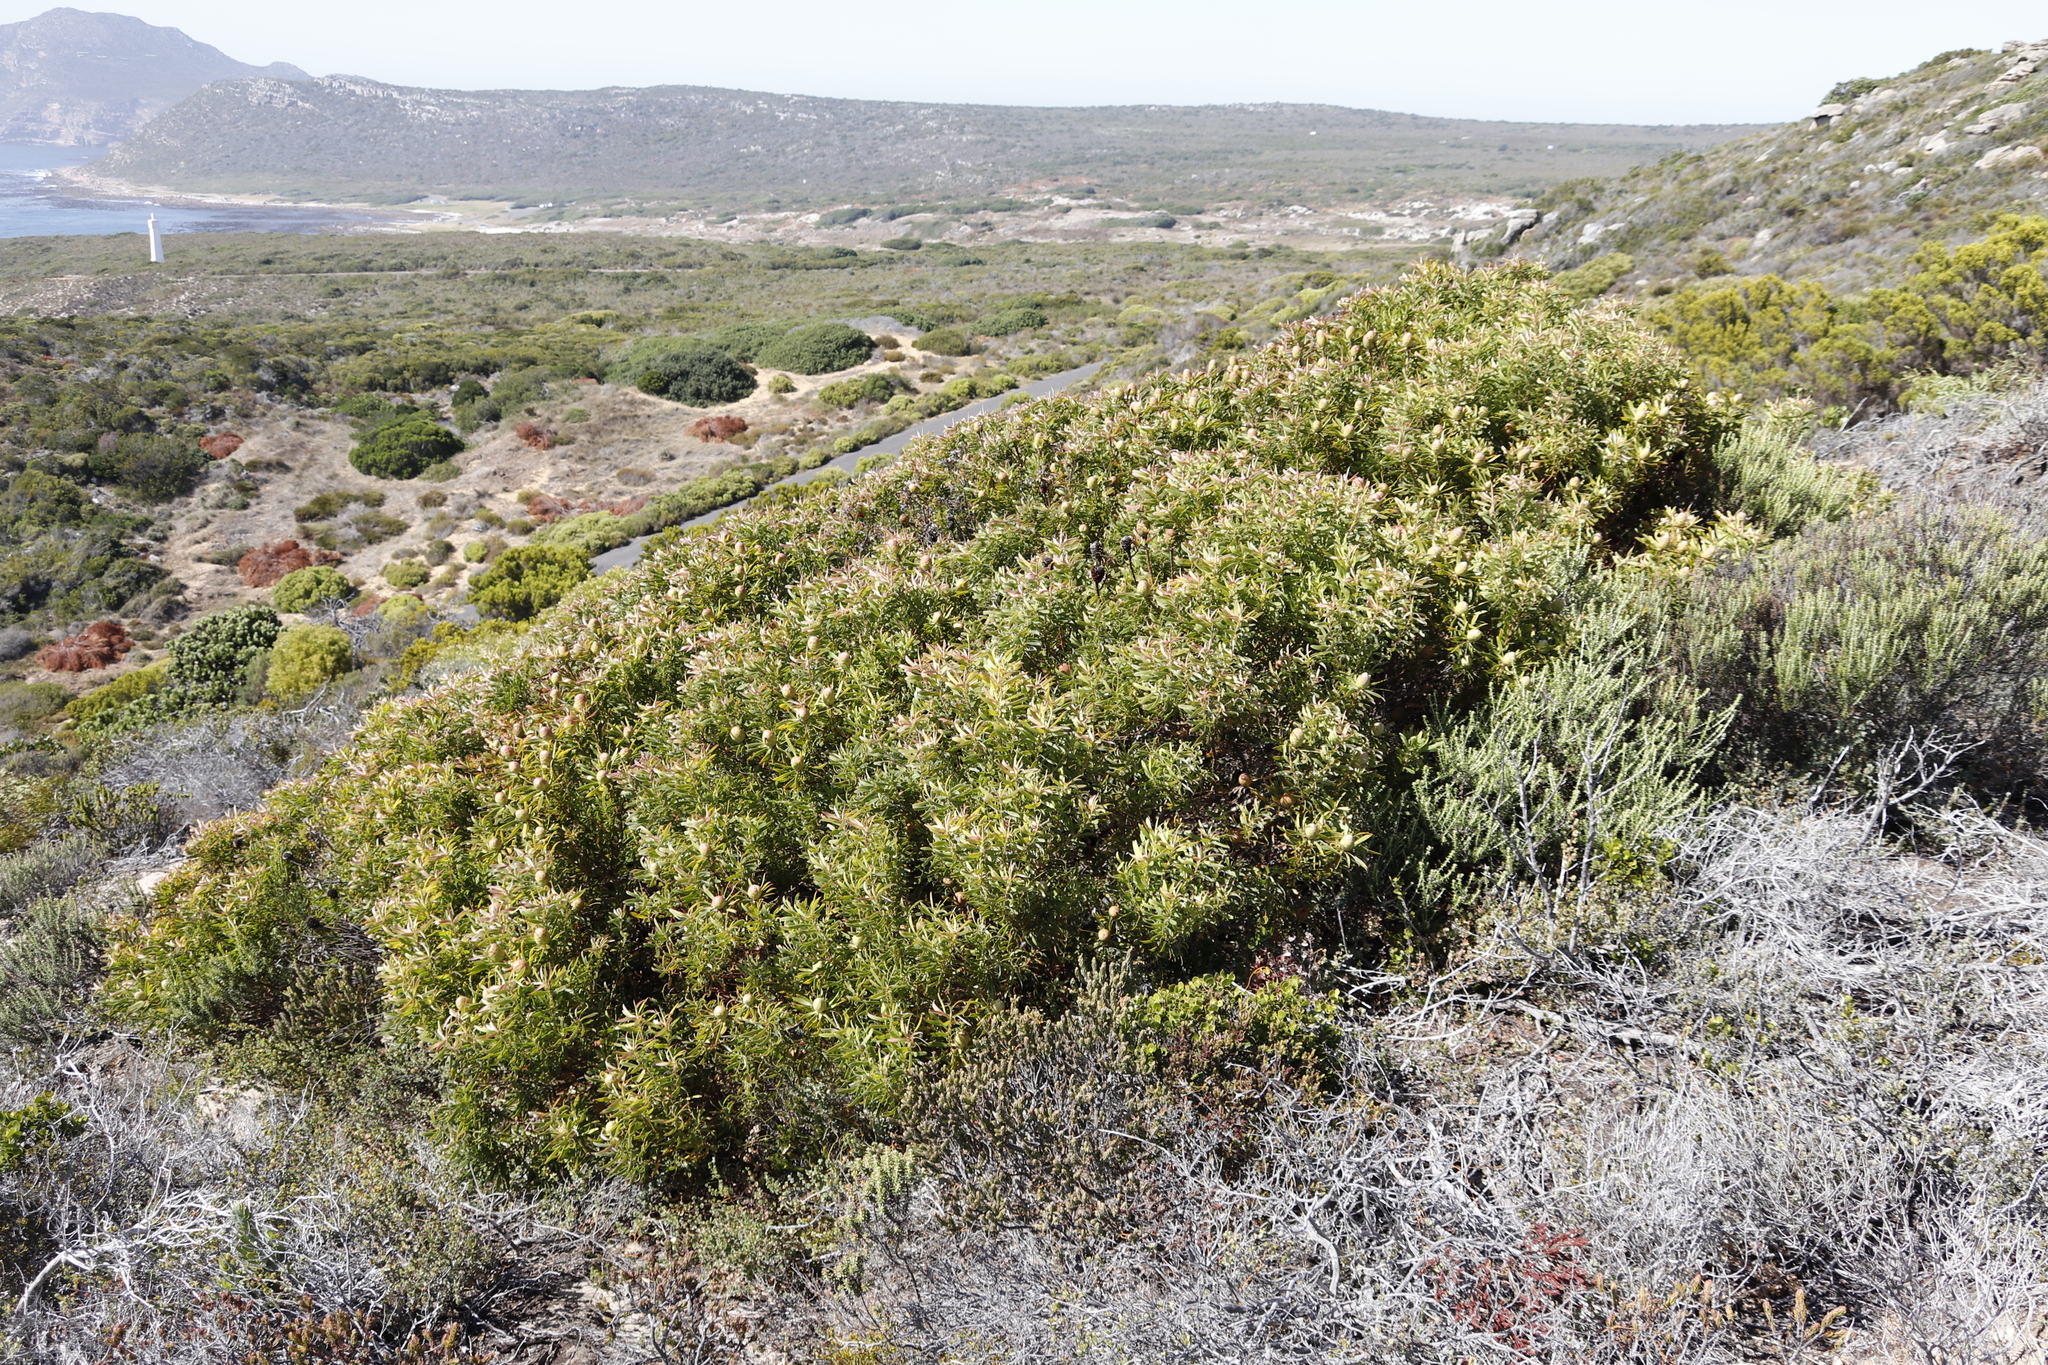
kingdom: Plantae
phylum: Tracheophyta
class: Magnoliopsida
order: Proteales
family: Proteaceae
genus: Leucadendron
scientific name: Leucadendron coniferum
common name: Dune conebush
